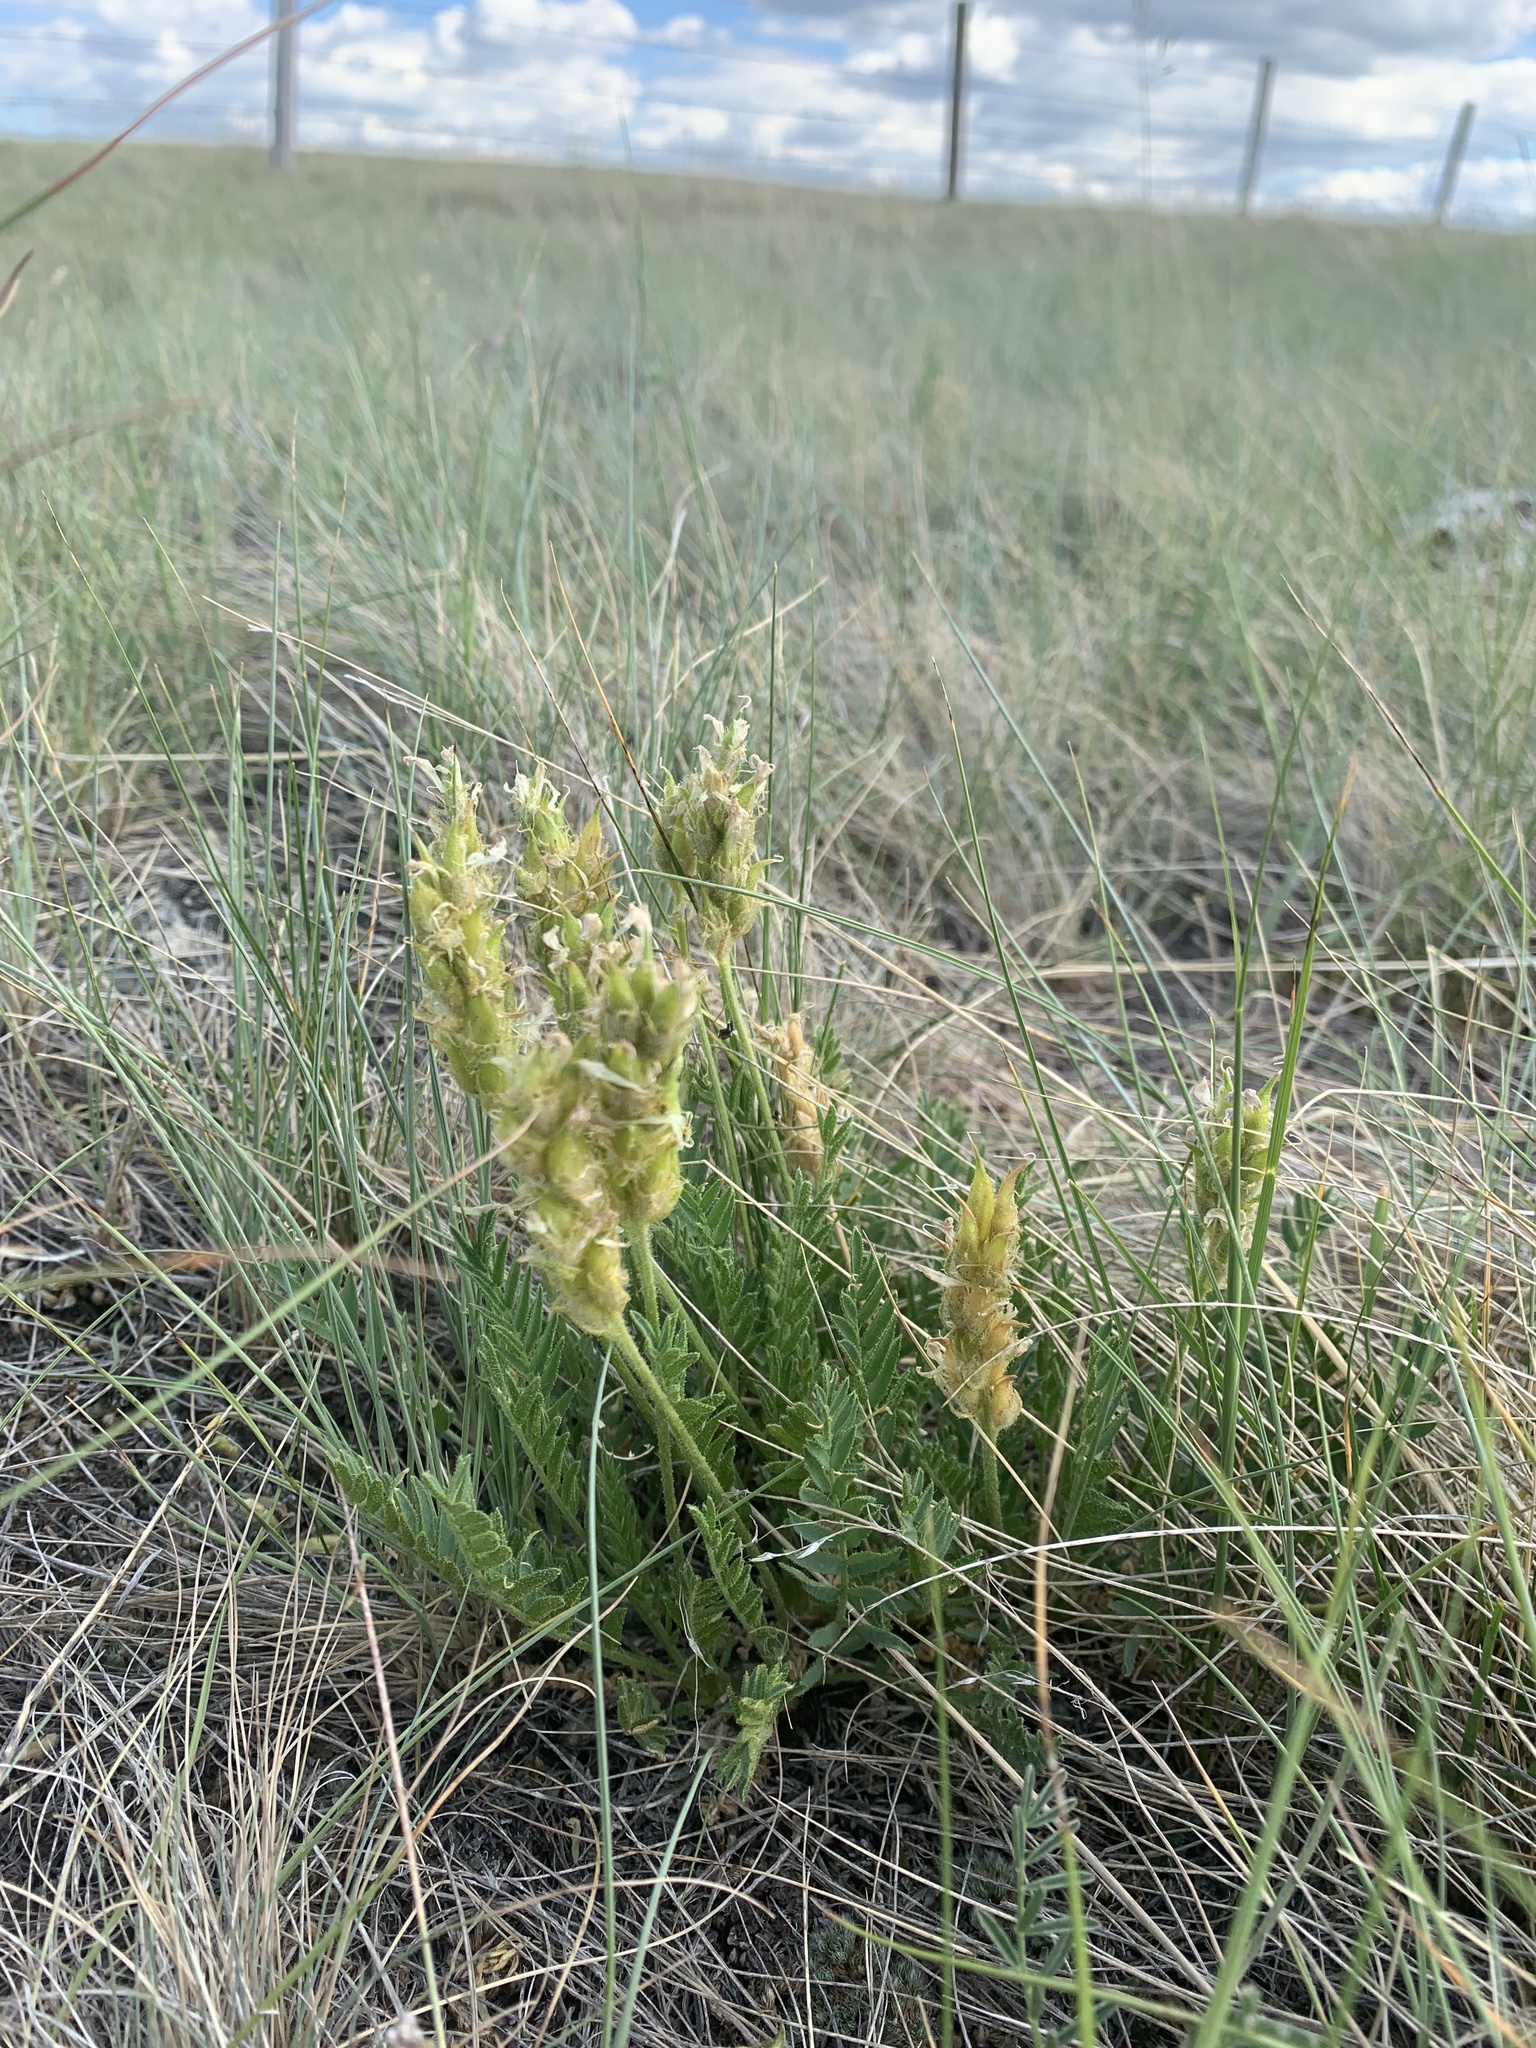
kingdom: Plantae
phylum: Tracheophyta
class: Magnoliopsida
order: Fabales
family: Fabaceae
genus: Oxytropis
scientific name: Oxytropis borealis
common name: Boreal locoweed
